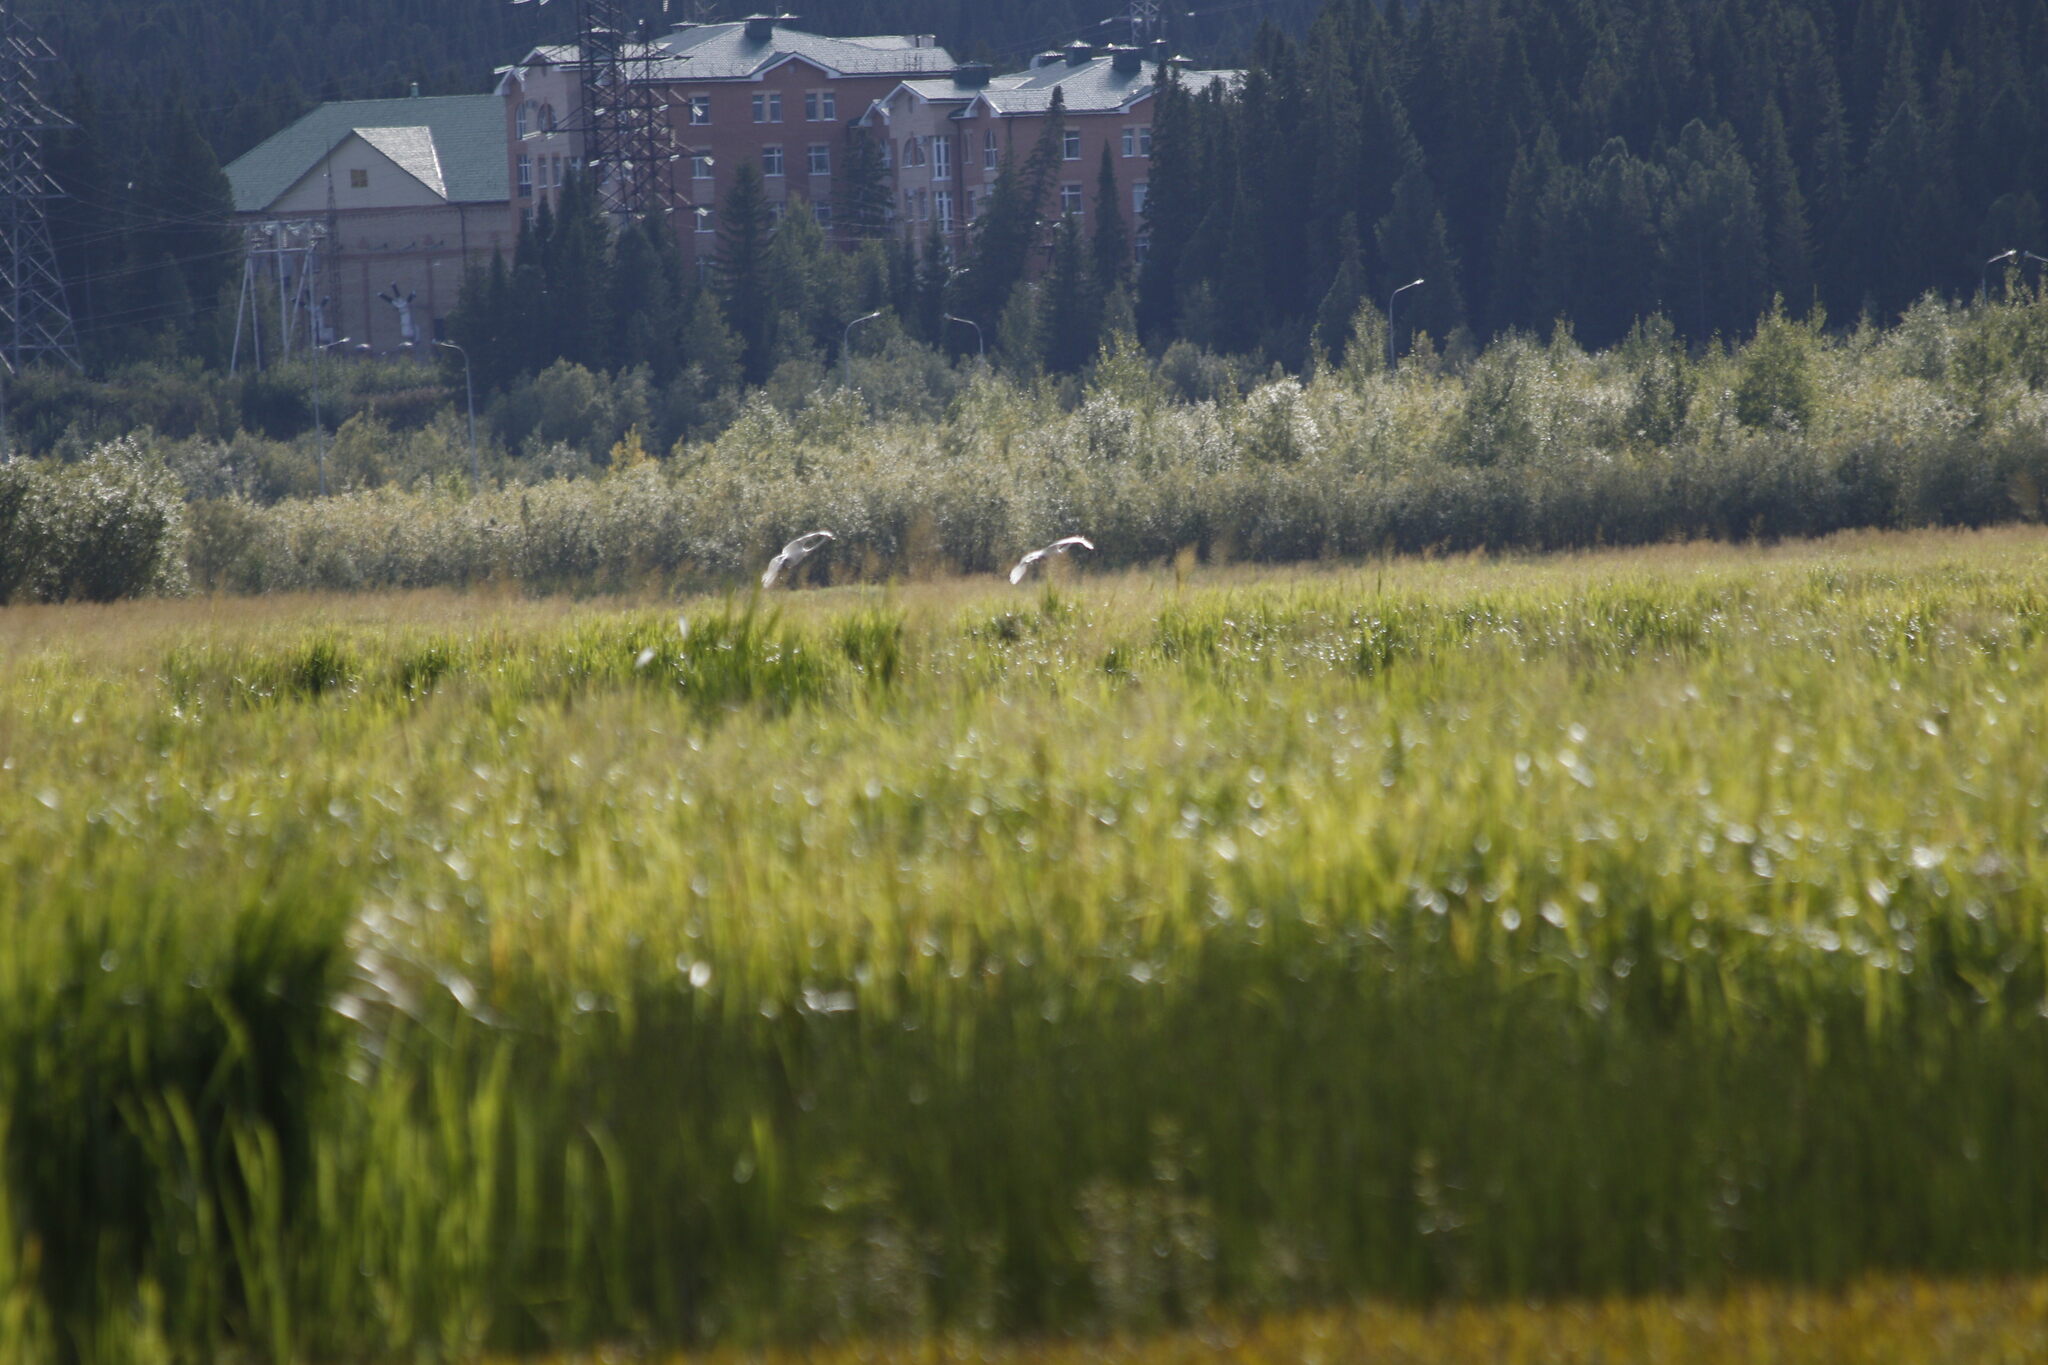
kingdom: Animalia
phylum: Chordata
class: Aves
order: Anseriformes
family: Anatidae
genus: Cygnus
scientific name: Cygnus cygnus
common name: Whooper swan
